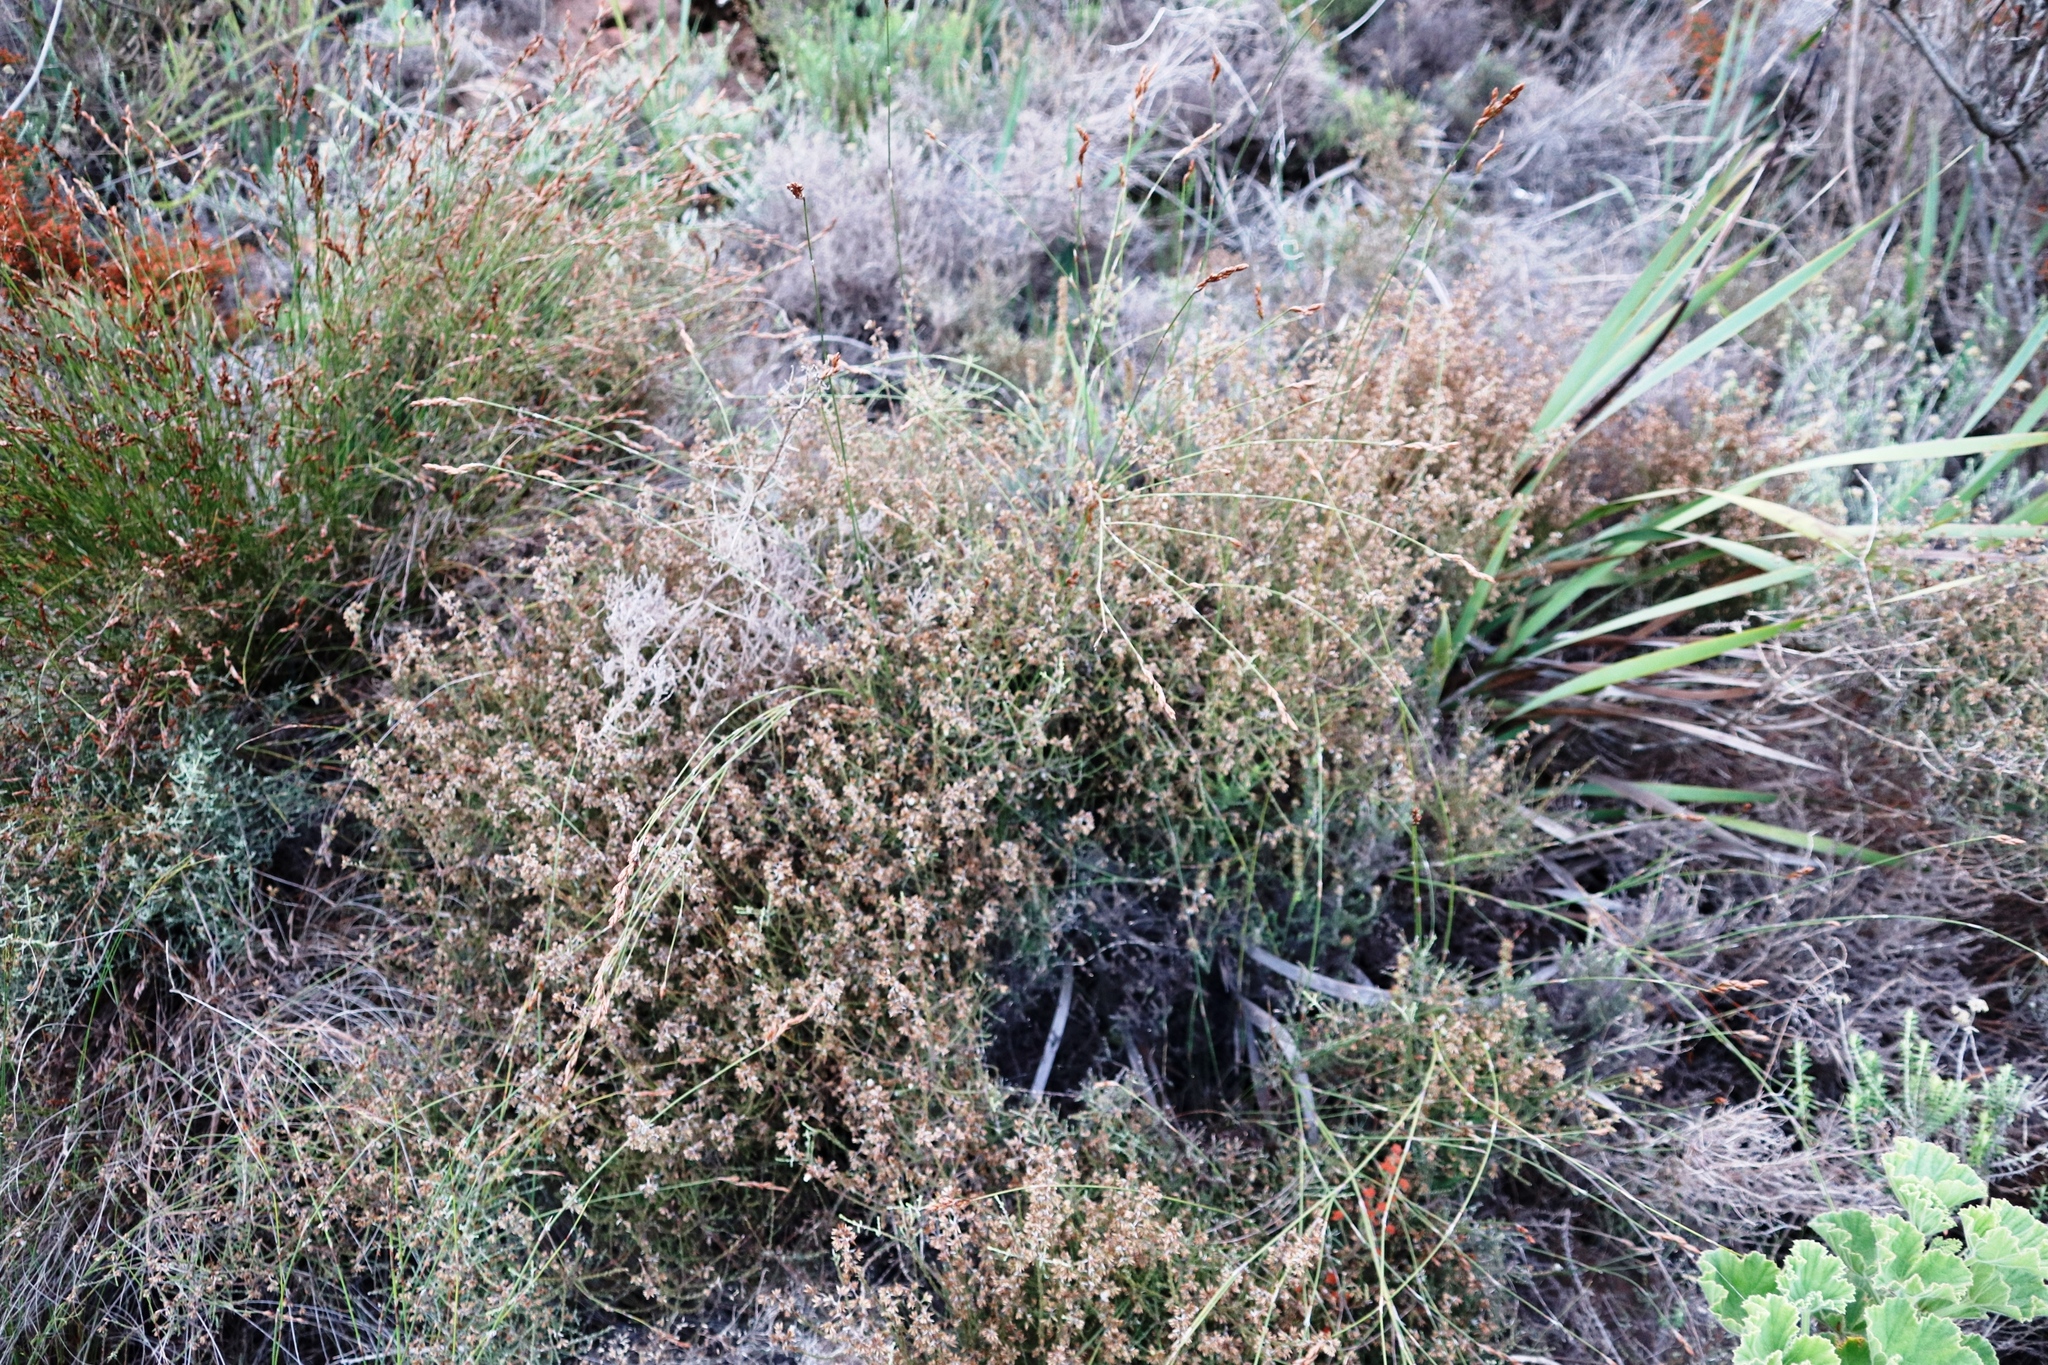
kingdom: Plantae
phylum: Tracheophyta
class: Magnoliopsida
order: Asterales
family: Asteraceae
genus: Myrovernix
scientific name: Myrovernix scaber
